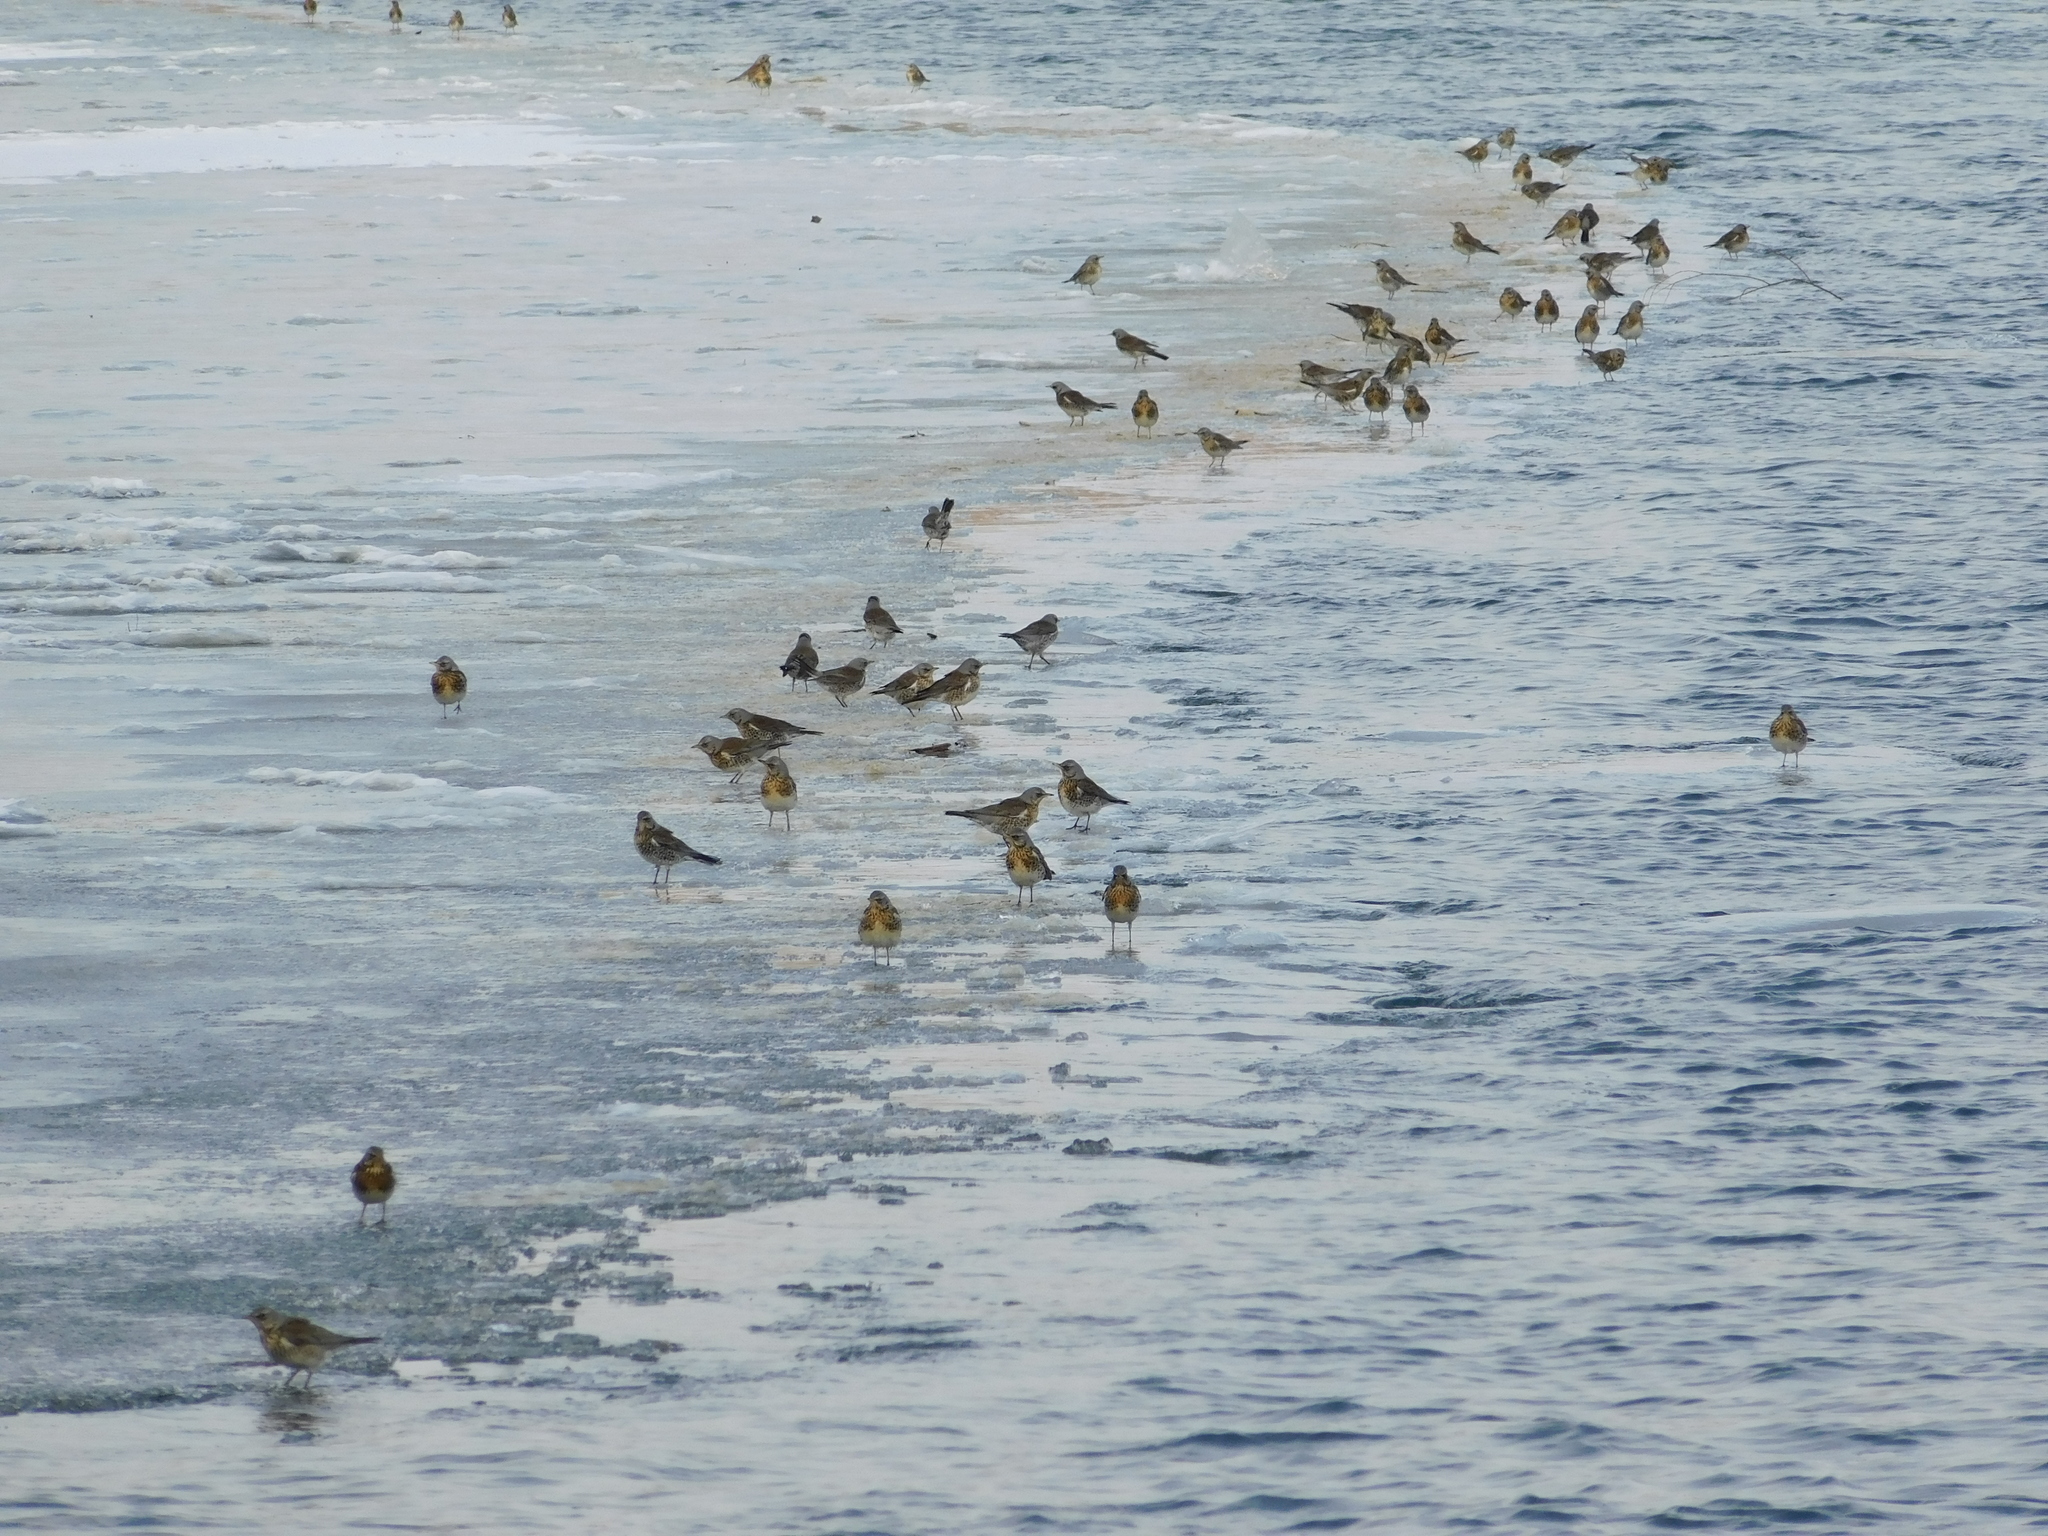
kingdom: Animalia
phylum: Chordata
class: Aves
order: Passeriformes
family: Turdidae
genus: Turdus
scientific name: Turdus pilaris
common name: Fieldfare
